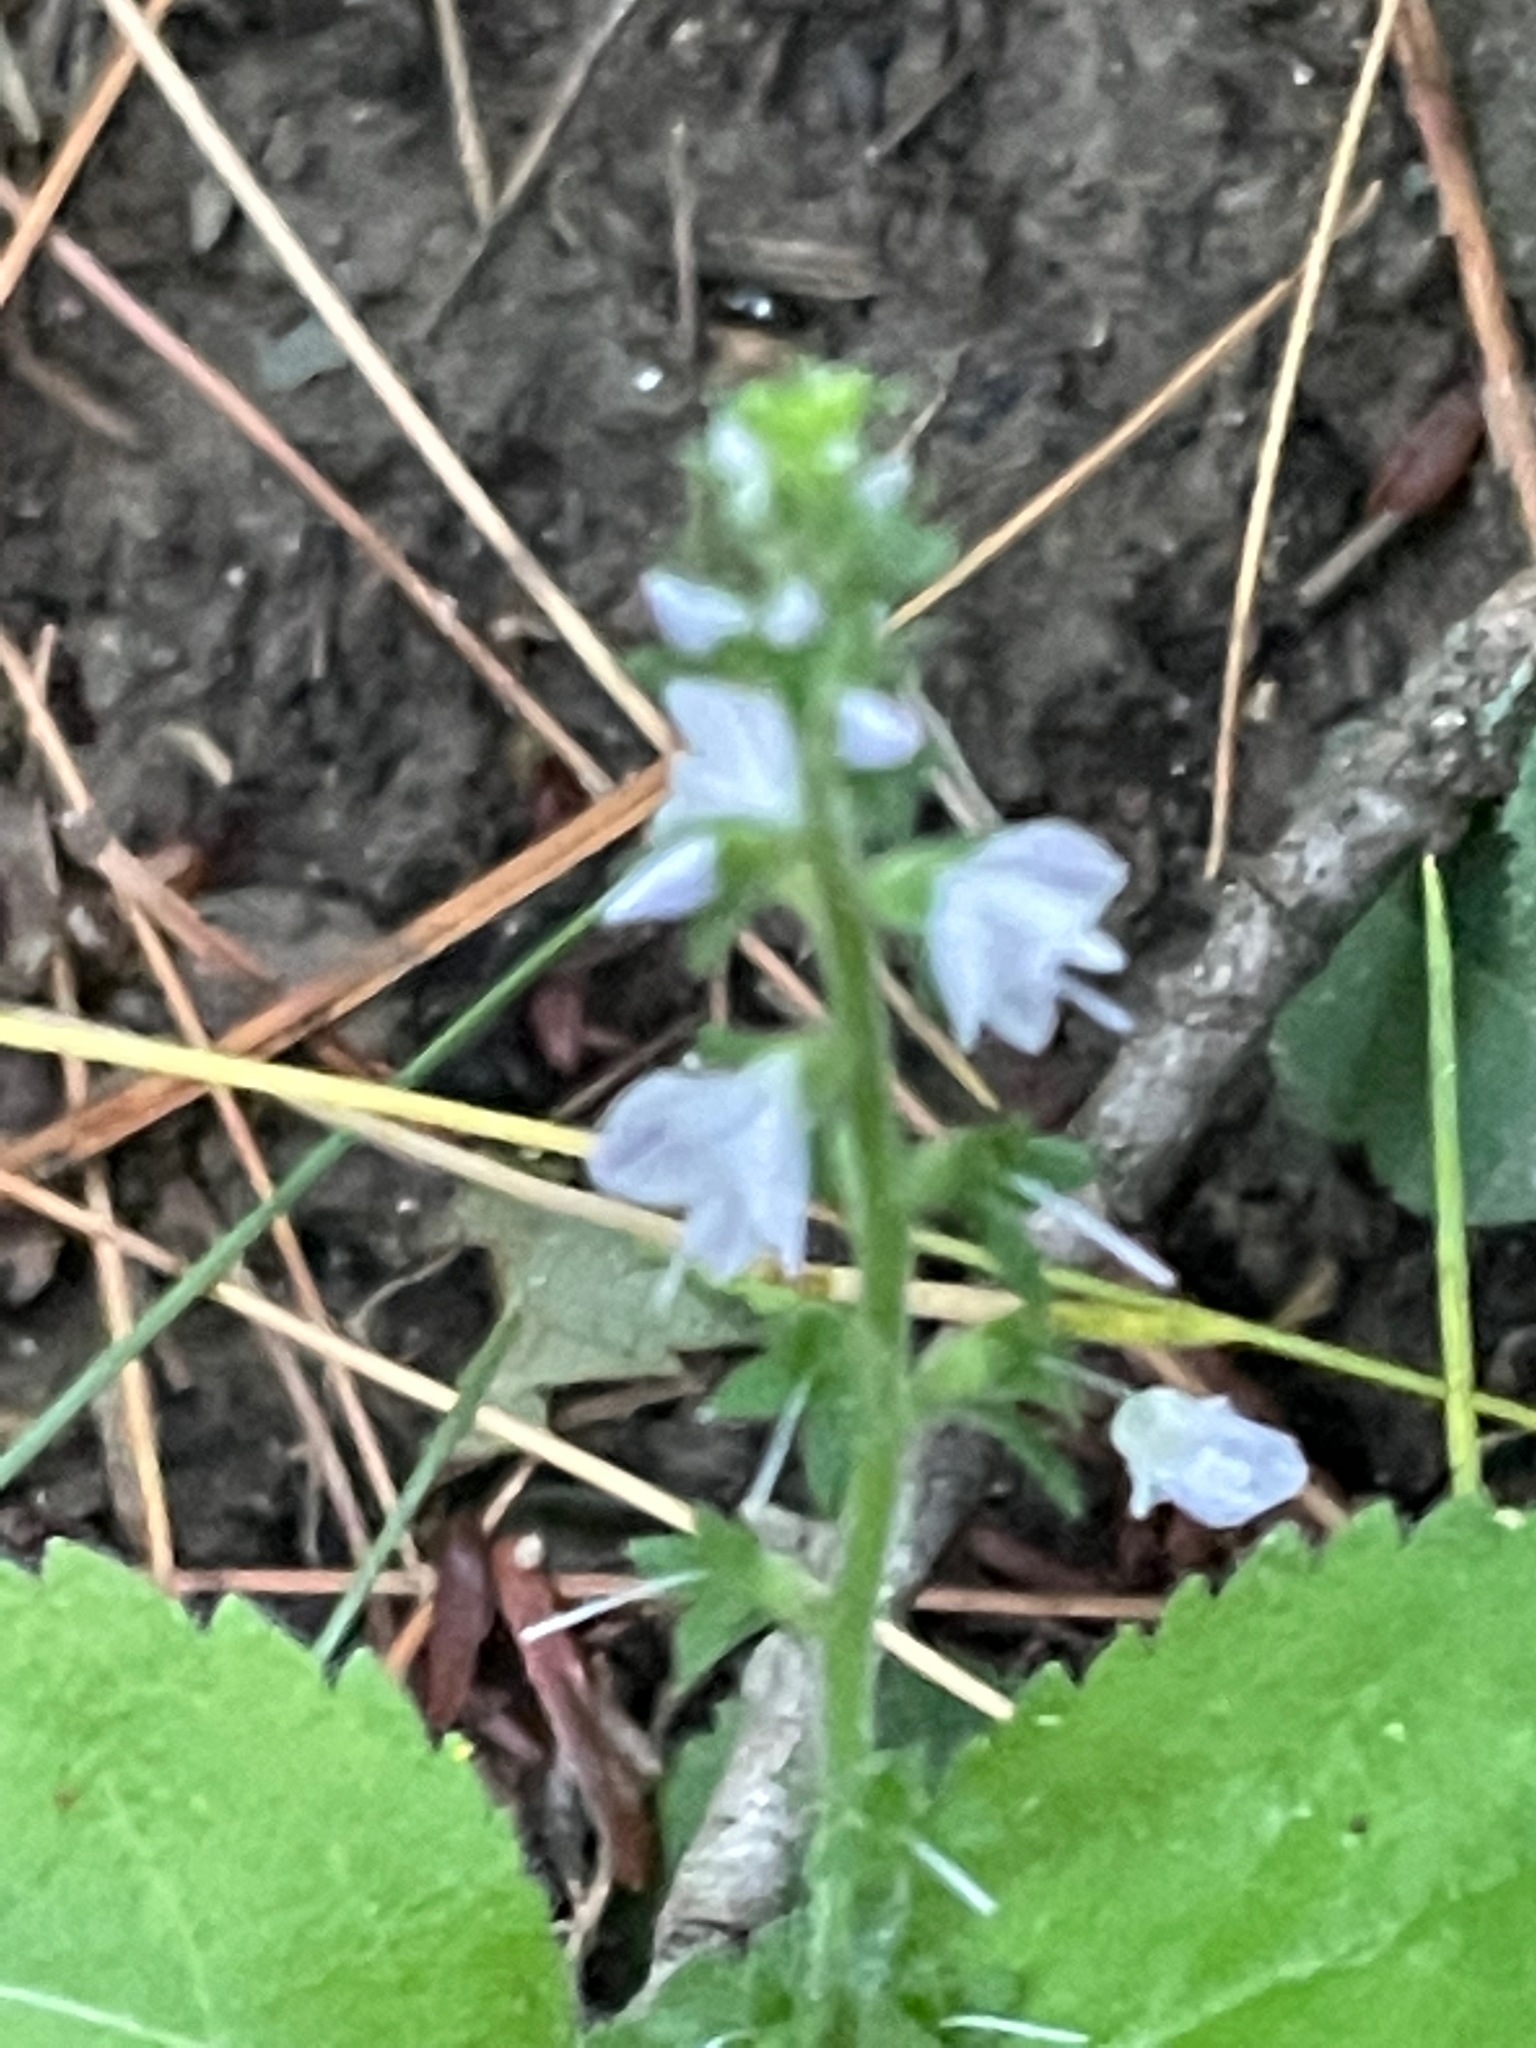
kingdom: Plantae
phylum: Tracheophyta
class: Magnoliopsida
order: Lamiales
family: Plantaginaceae
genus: Veronica
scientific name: Veronica officinalis
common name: Common speedwell
